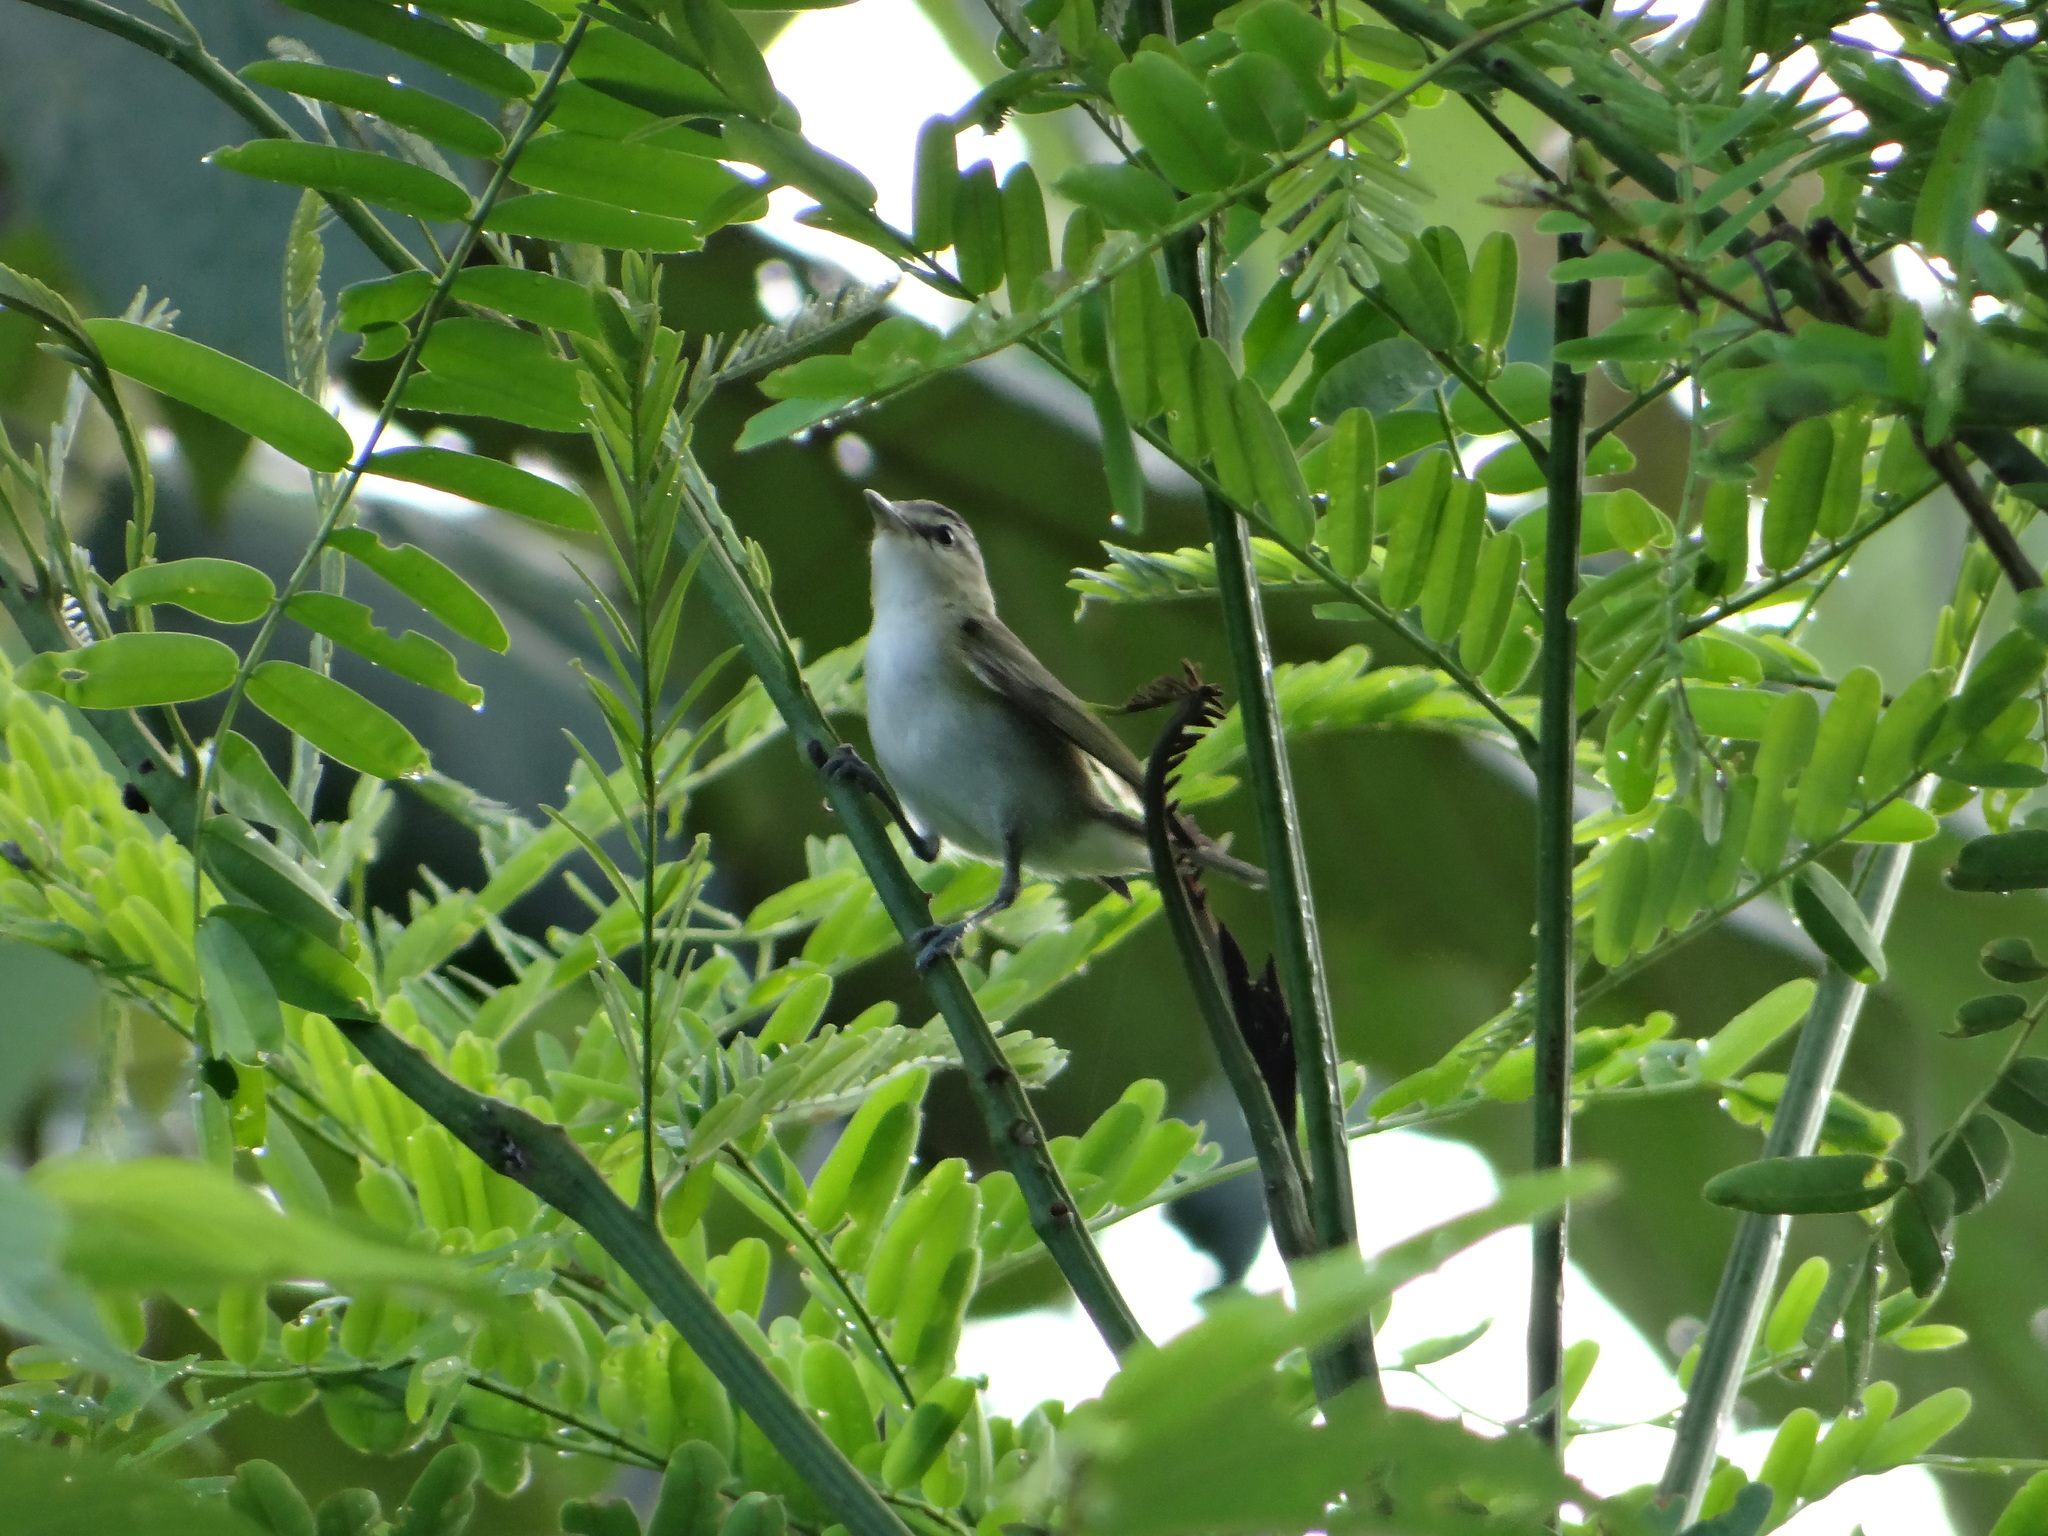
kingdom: Animalia
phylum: Chordata
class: Aves
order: Passeriformes
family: Vireonidae
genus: Vireo
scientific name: Vireo olivaceus
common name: Red-eyed vireo
